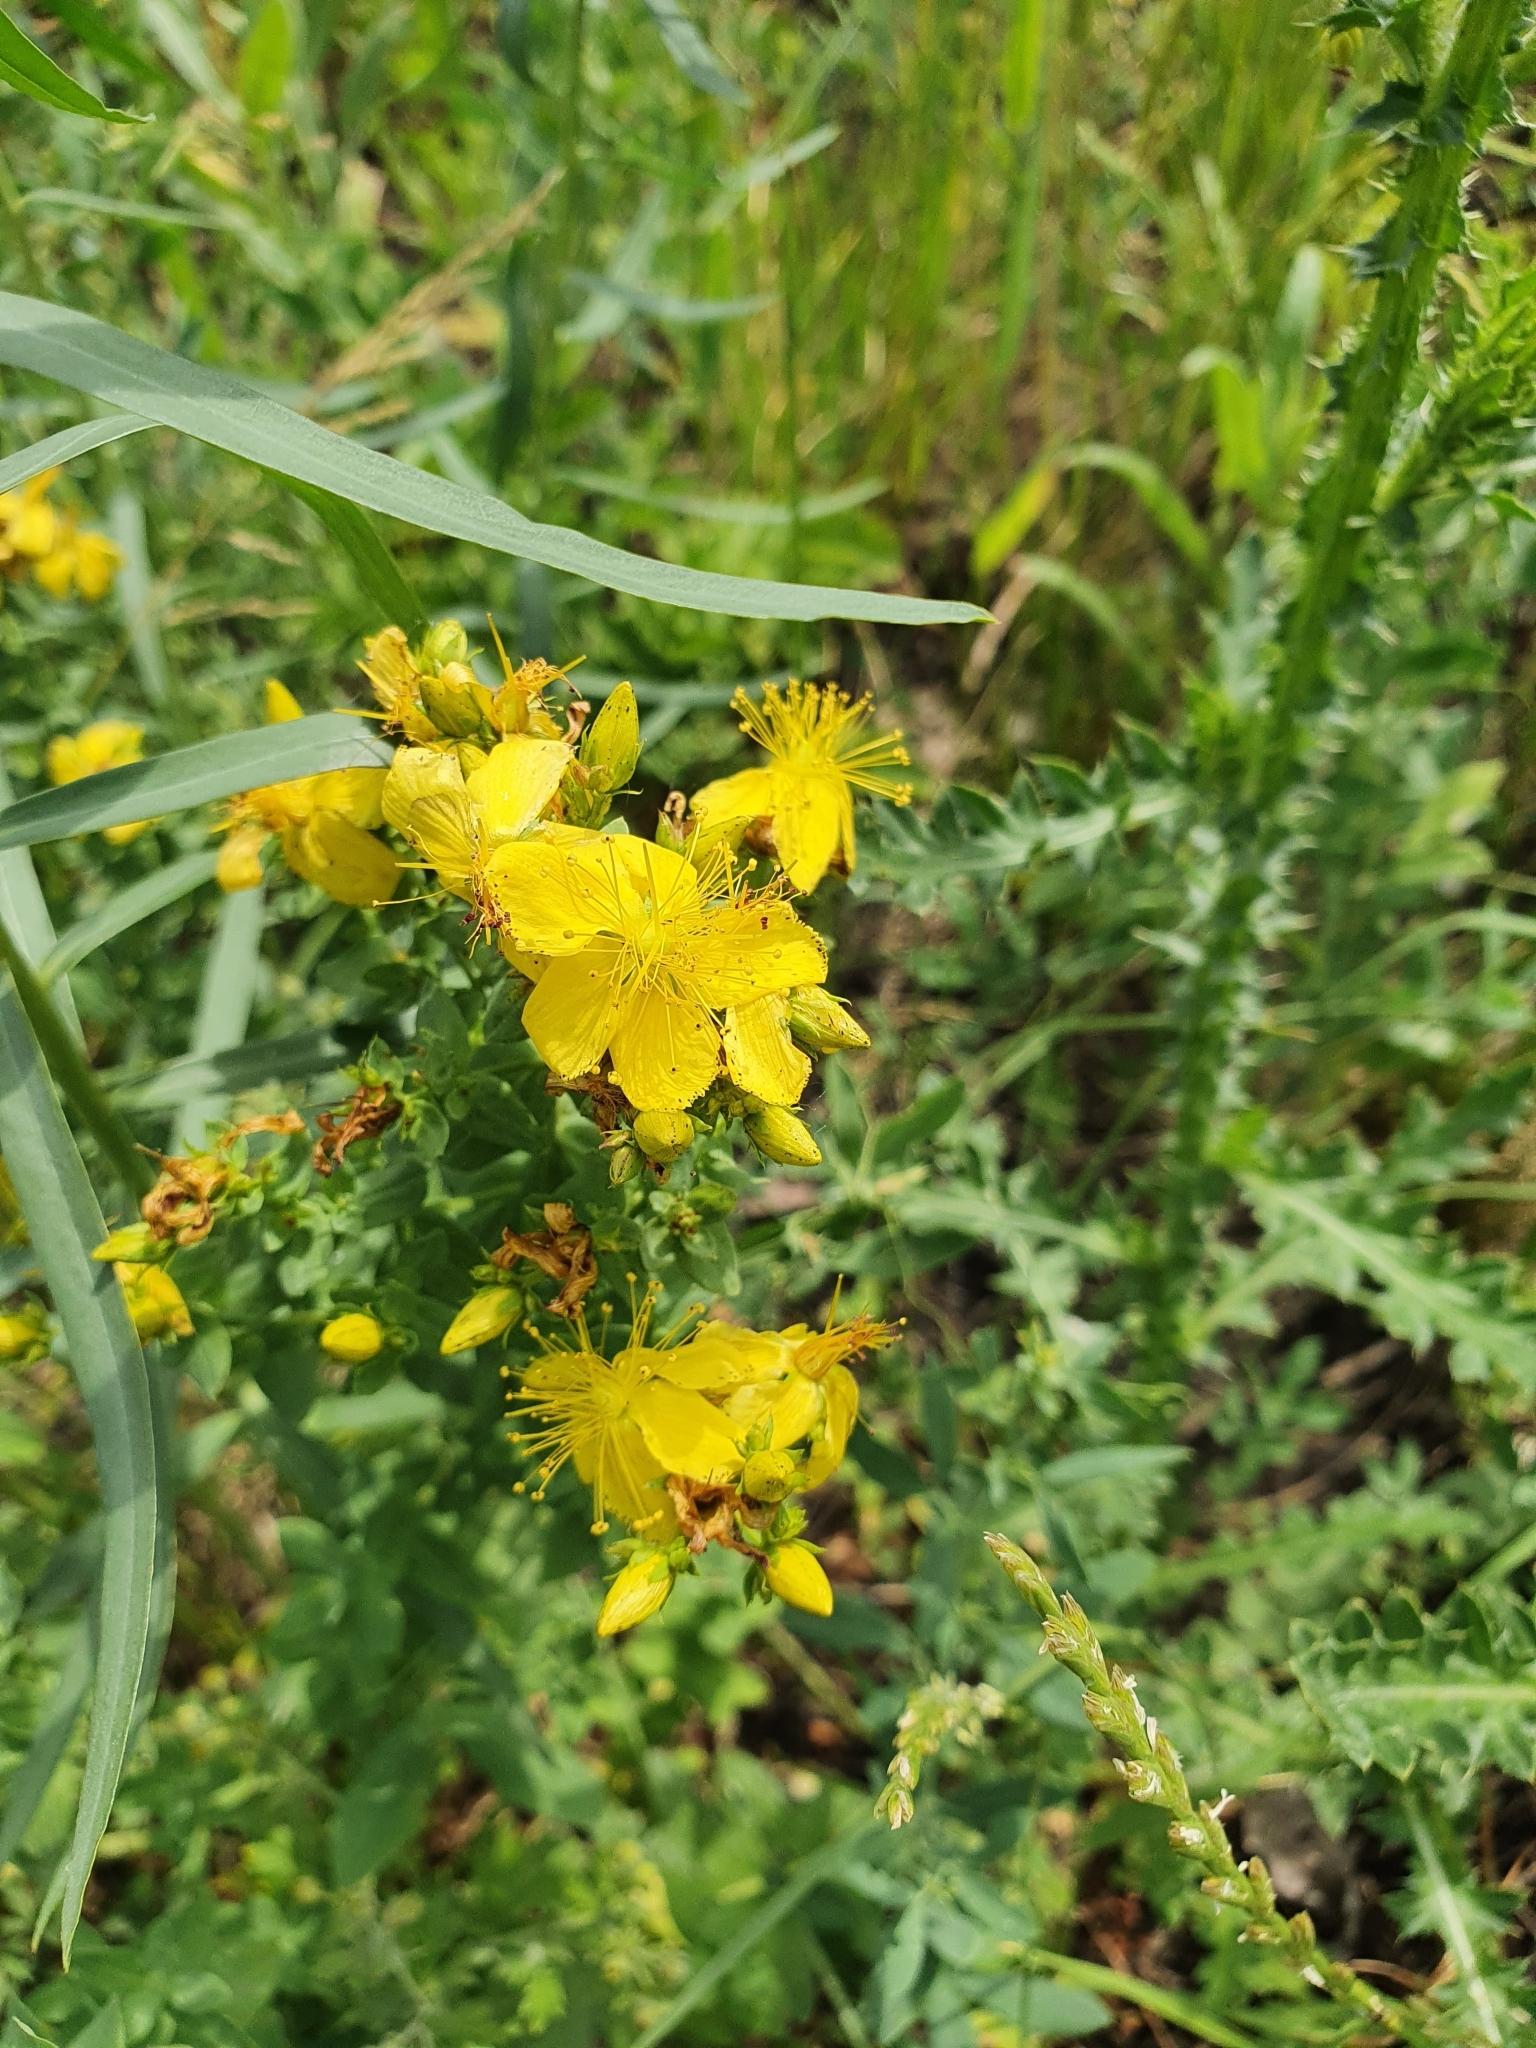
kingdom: Plantae
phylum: Tracheophyta
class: Magnoliopsida
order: Malpighiales
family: Hypericaceae
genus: Hypericum
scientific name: Hypericum perforatum
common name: Common st. johnswort
